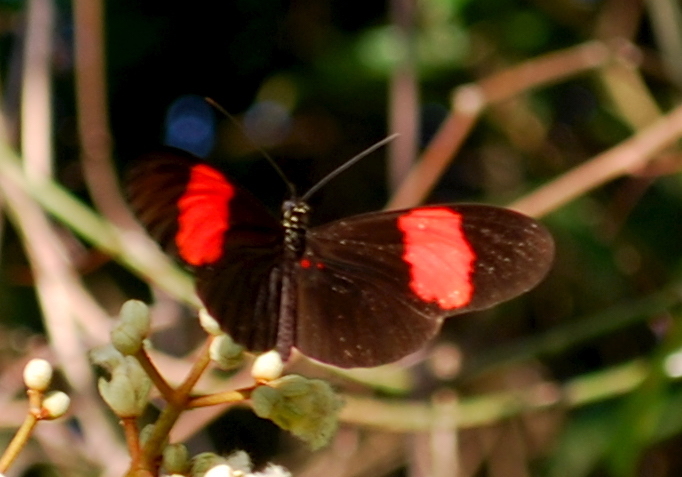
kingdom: Animalia
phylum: Arthropoda
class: Insecta
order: Lepidoptera
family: Nymphalidae
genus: Heliconius
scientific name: Heliconius erato
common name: Common patch longwing
